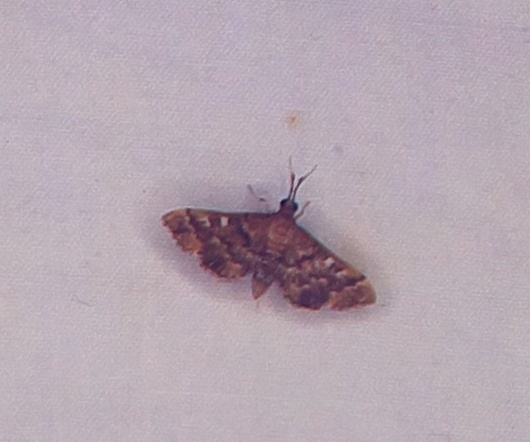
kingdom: Animalia
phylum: Arthropoda
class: Insecta
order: Lepidoptera
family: Crambidae
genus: Nacoleia
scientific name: Nacoleia rhoeoalis
